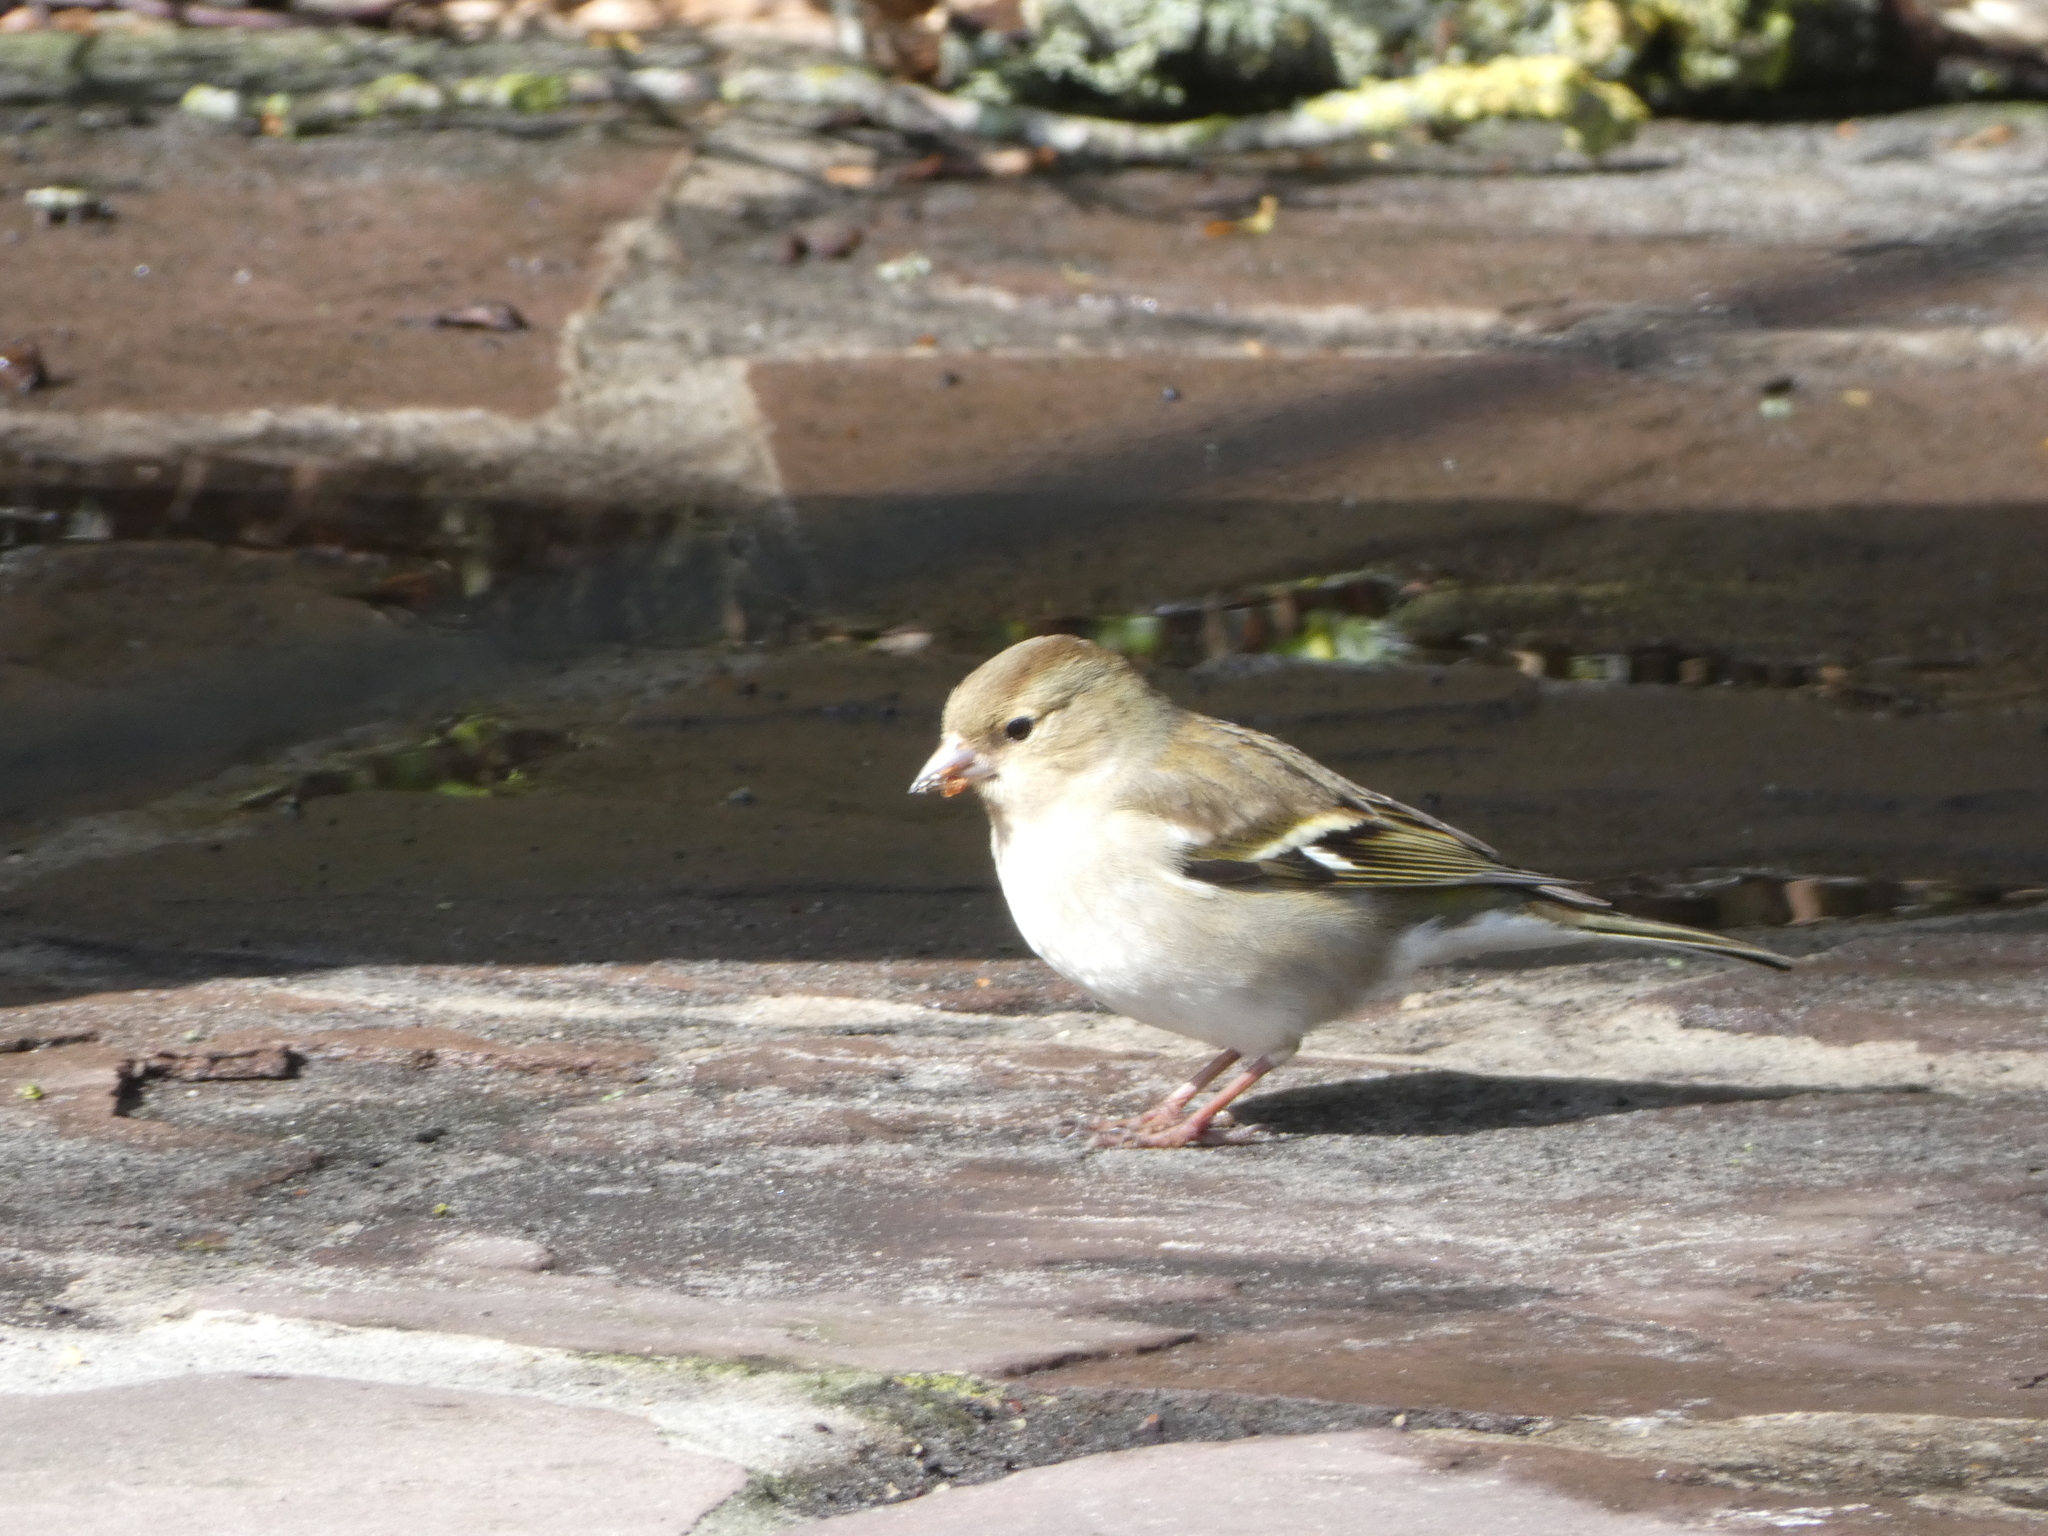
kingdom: Animalia
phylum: Chordata
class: Aves
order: Passeriformes
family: Fringillidae
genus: Fringilla
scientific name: Fringilla coelebs
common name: Common chaffinch
